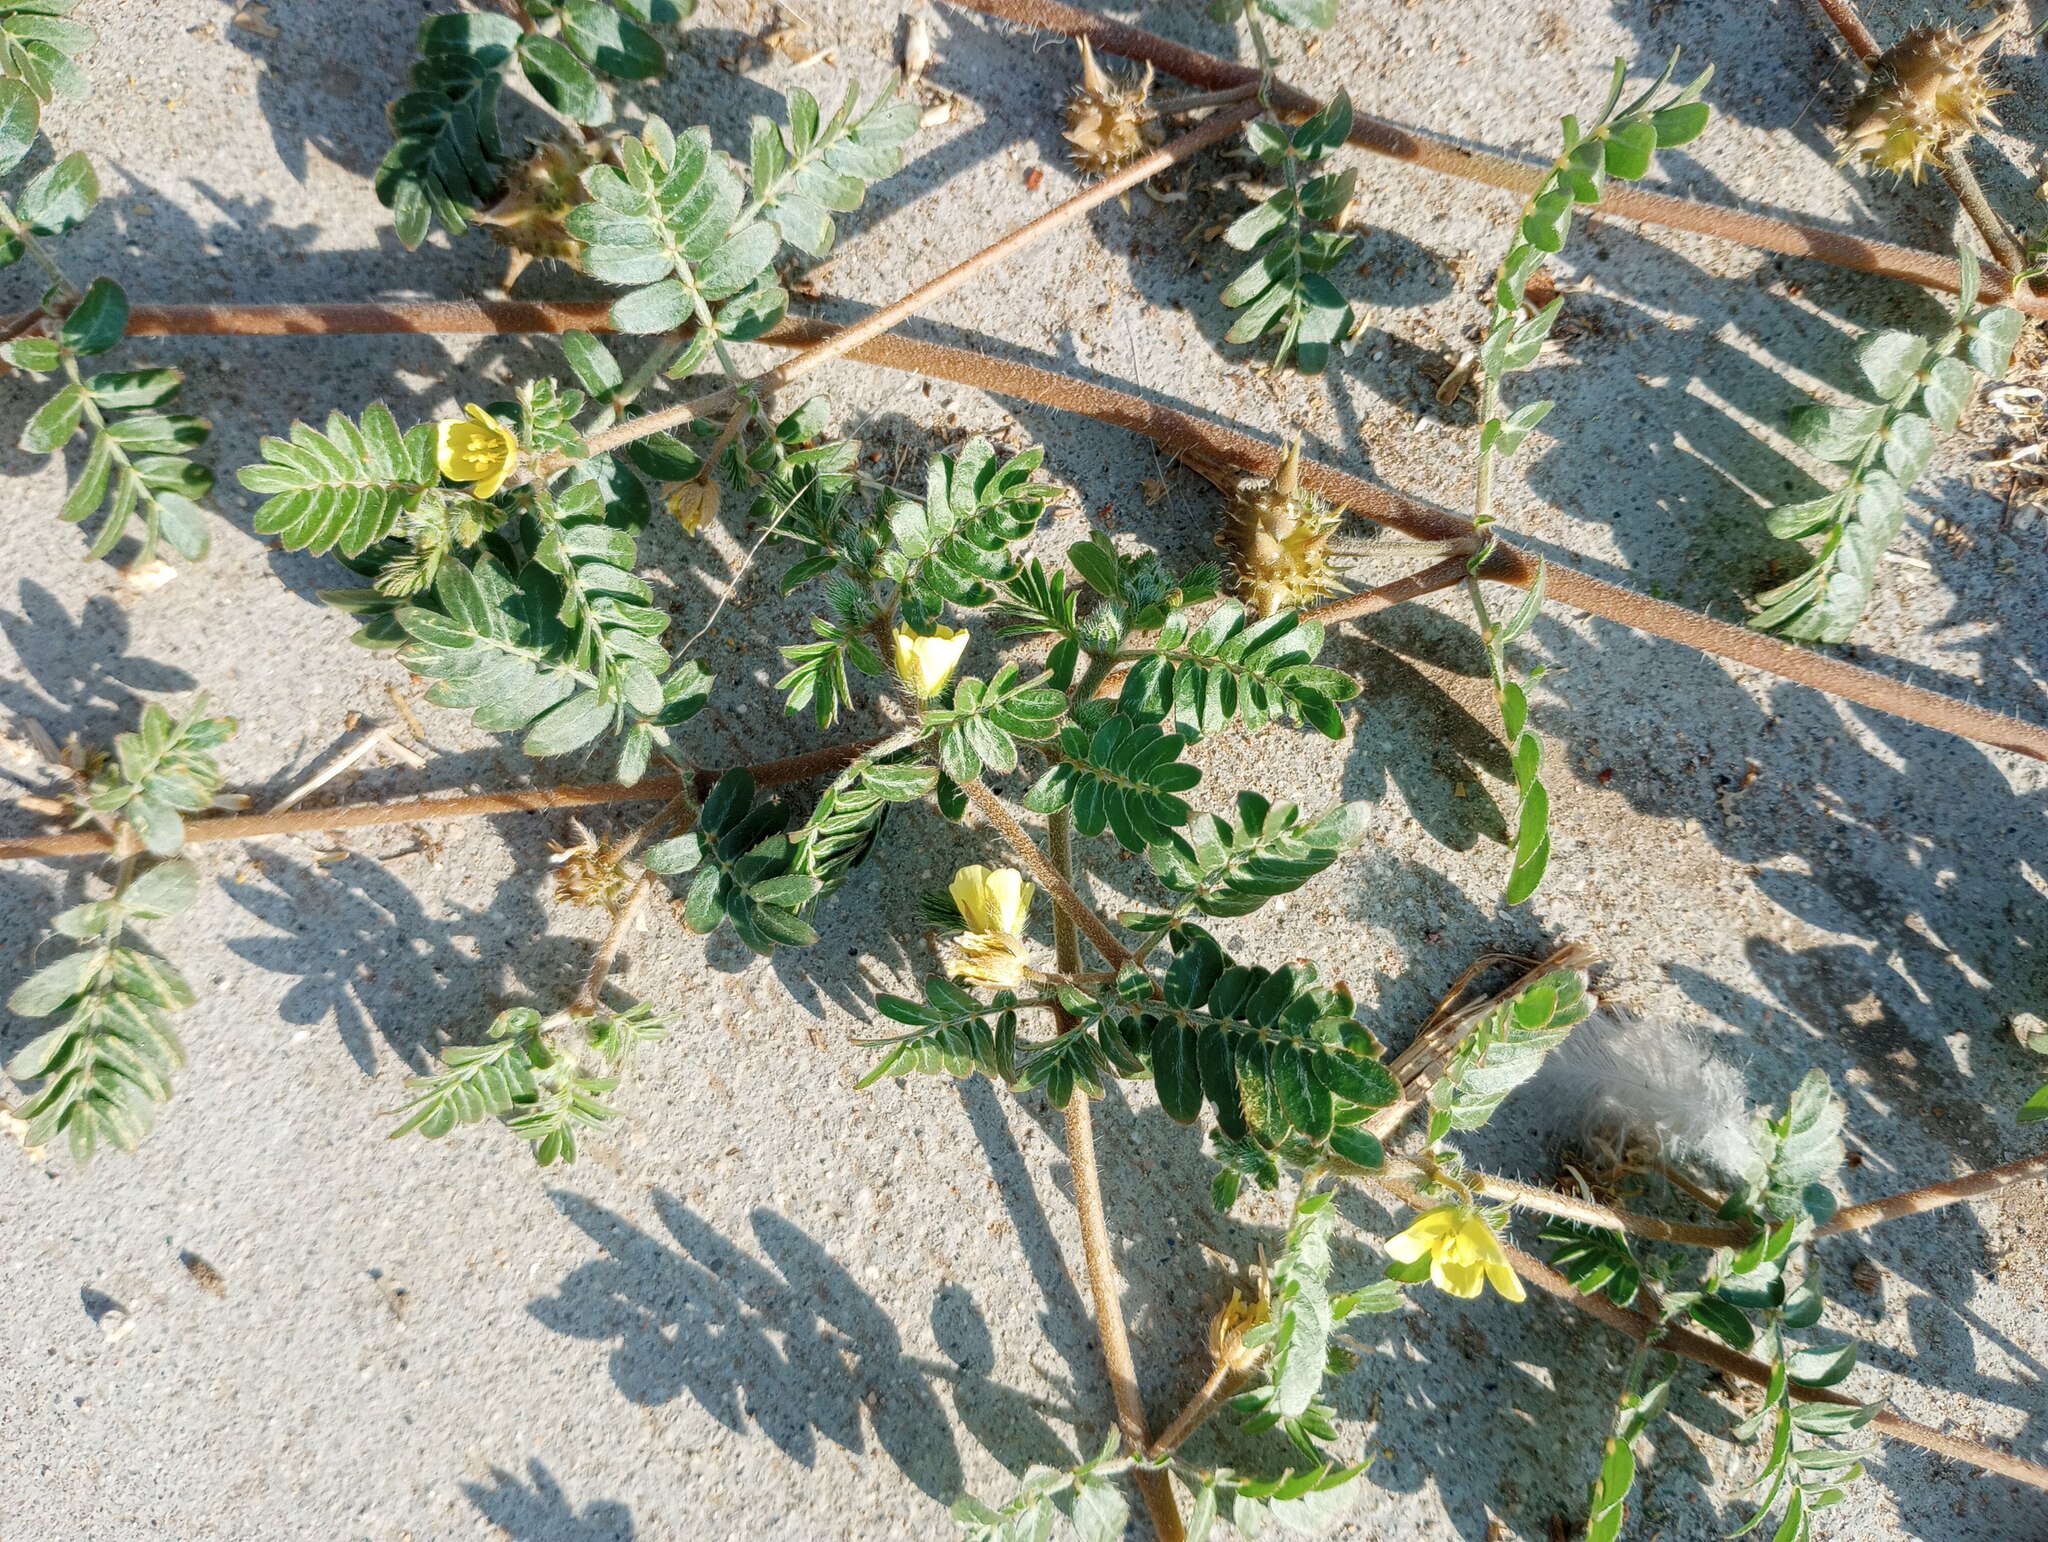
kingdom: Plantae
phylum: Tracheophyta
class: Magnoliopsida
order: Zygophyllales
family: Zygophyllaceae
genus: Tribulus
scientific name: Tribulus terrestris
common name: Puncturevine
